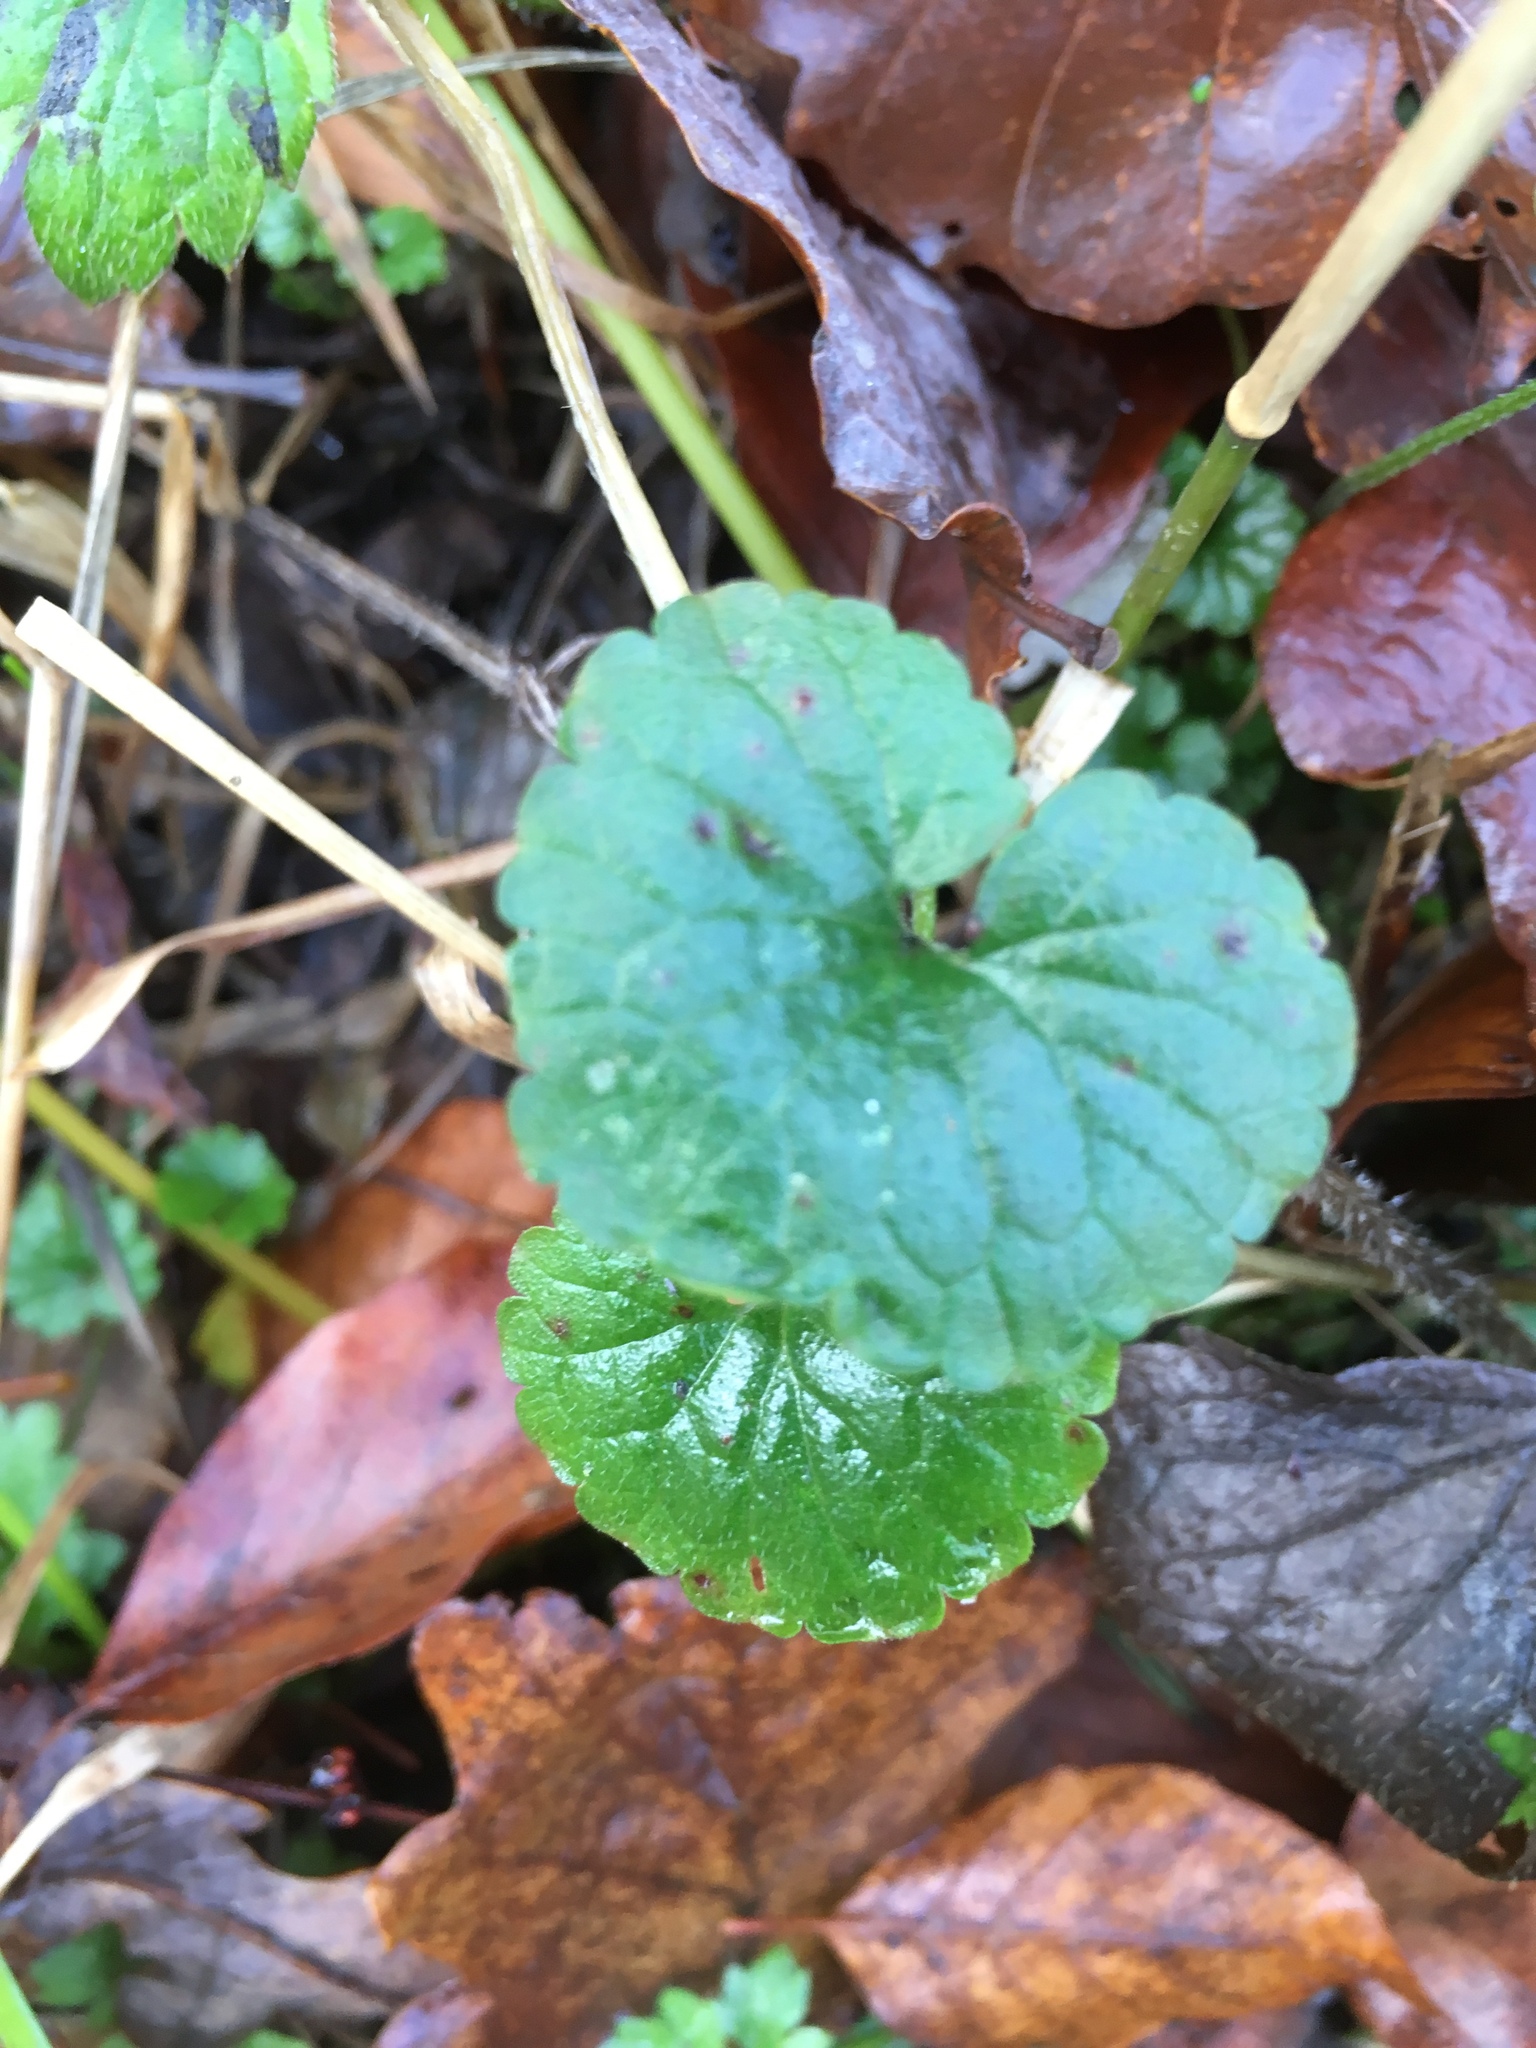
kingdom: Plantae
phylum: Tracheophyta
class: Magnoliopsida
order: Lamiales
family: Lamiaceae
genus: Glechoma
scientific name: Glechoma hederacea
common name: Ground ivy
